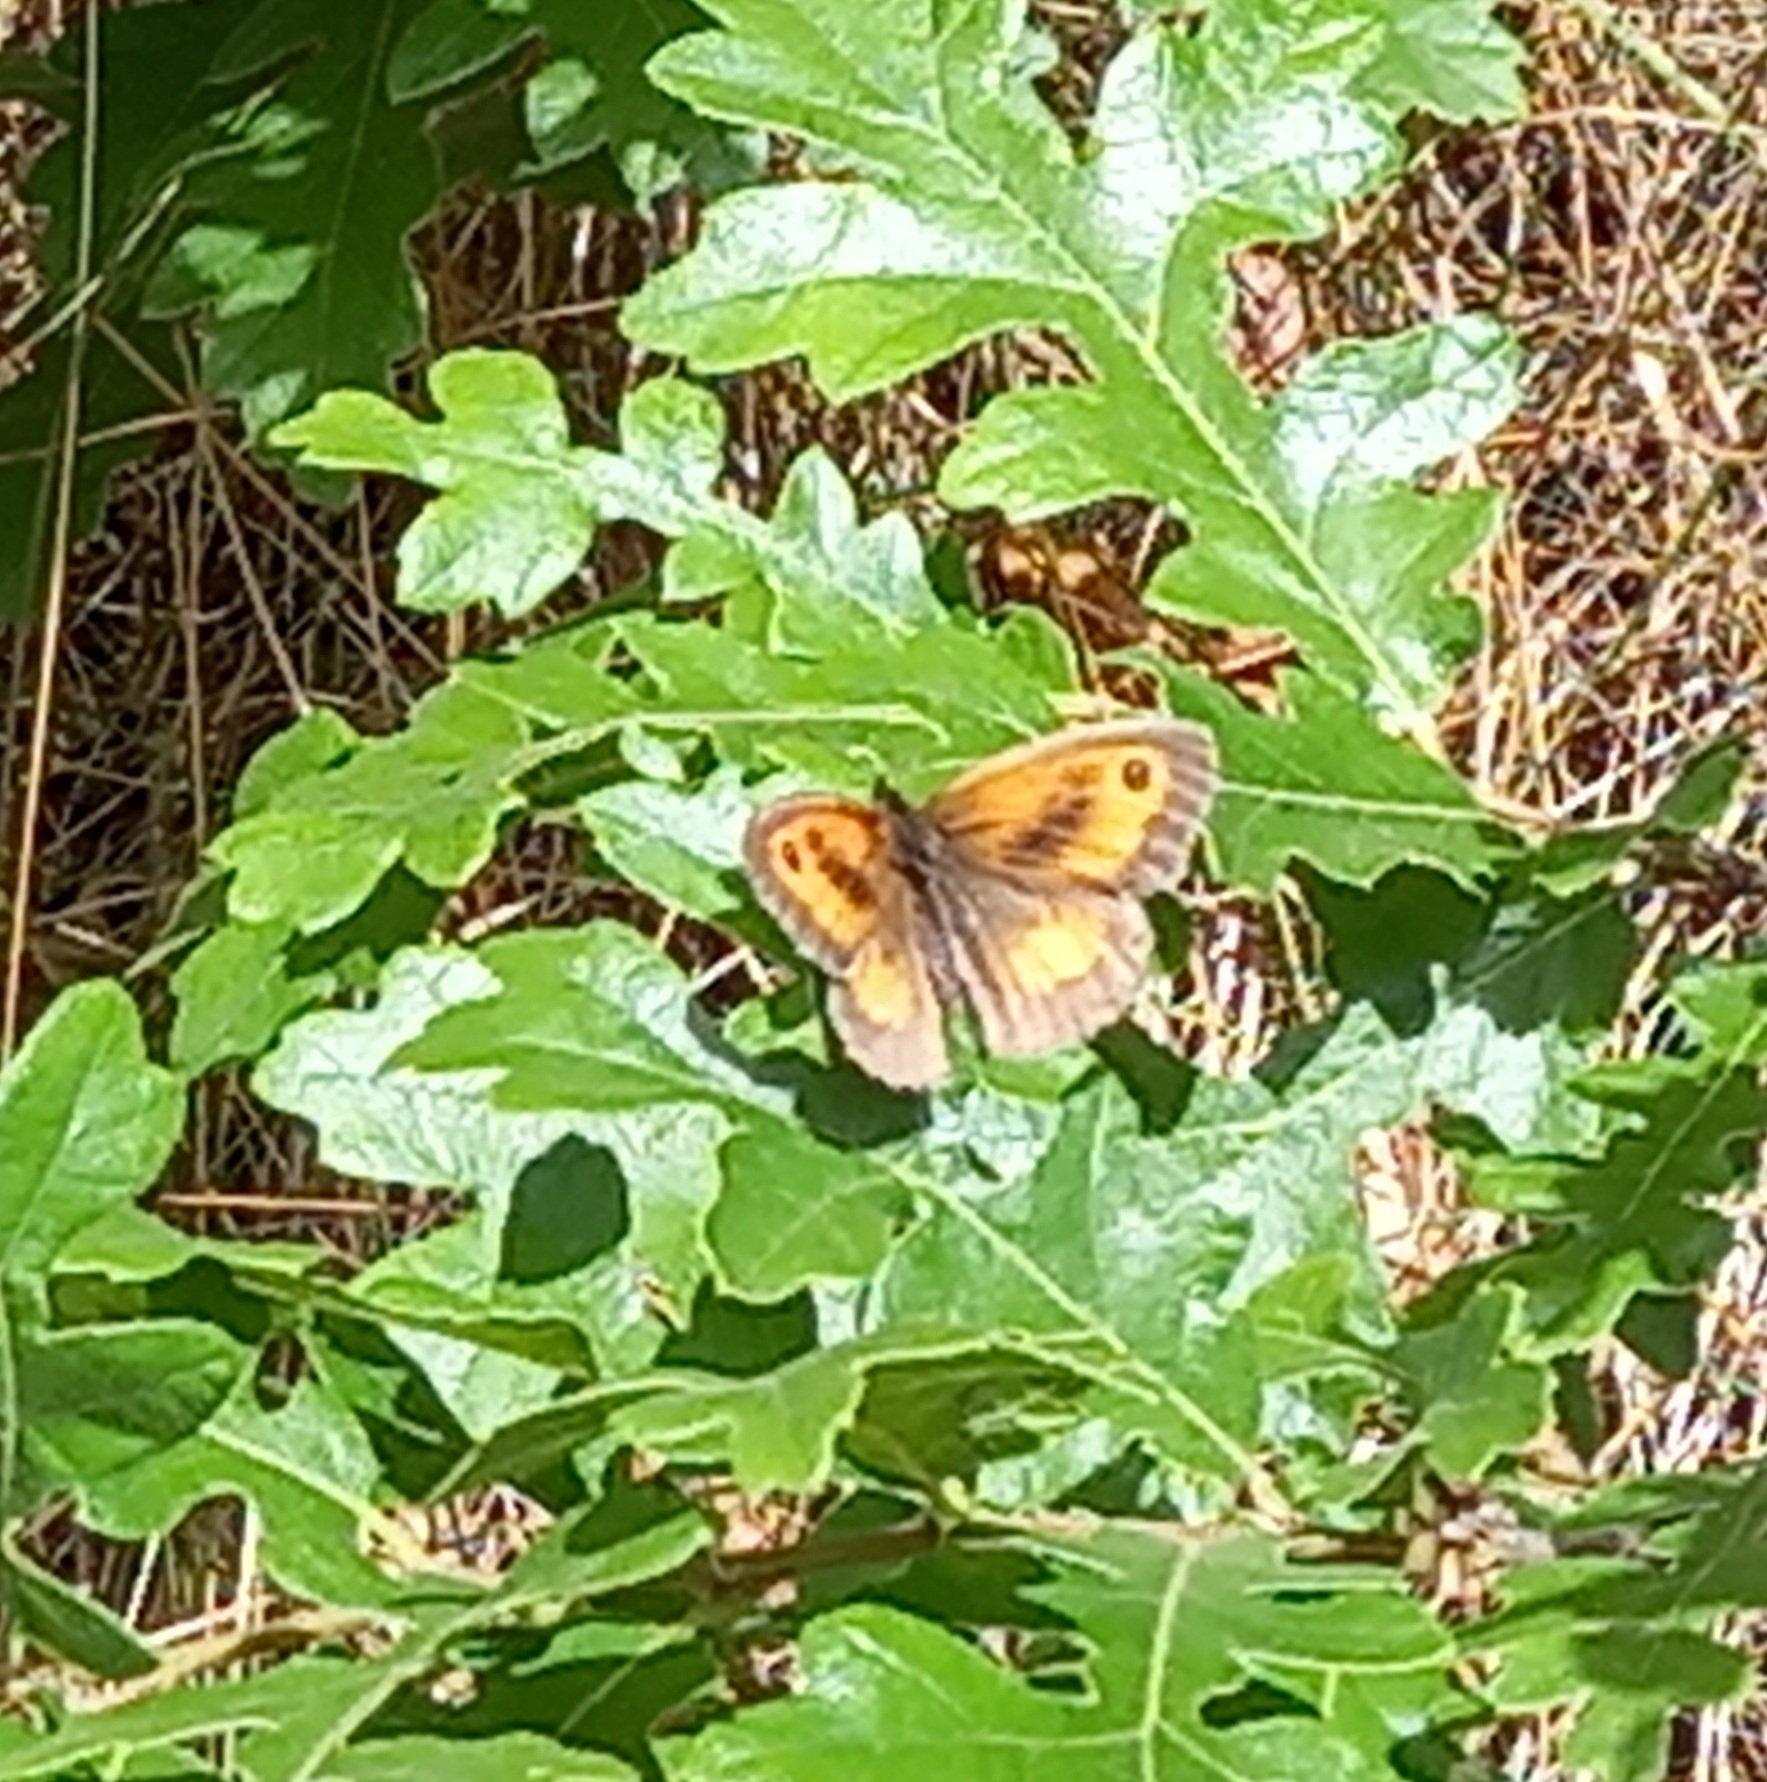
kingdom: Animalia
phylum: Arthropoda
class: Insecta
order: Lepidoptera
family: Nymphalidae
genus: Pyronia
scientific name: Pyronia tithonus
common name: Gatekeeper
